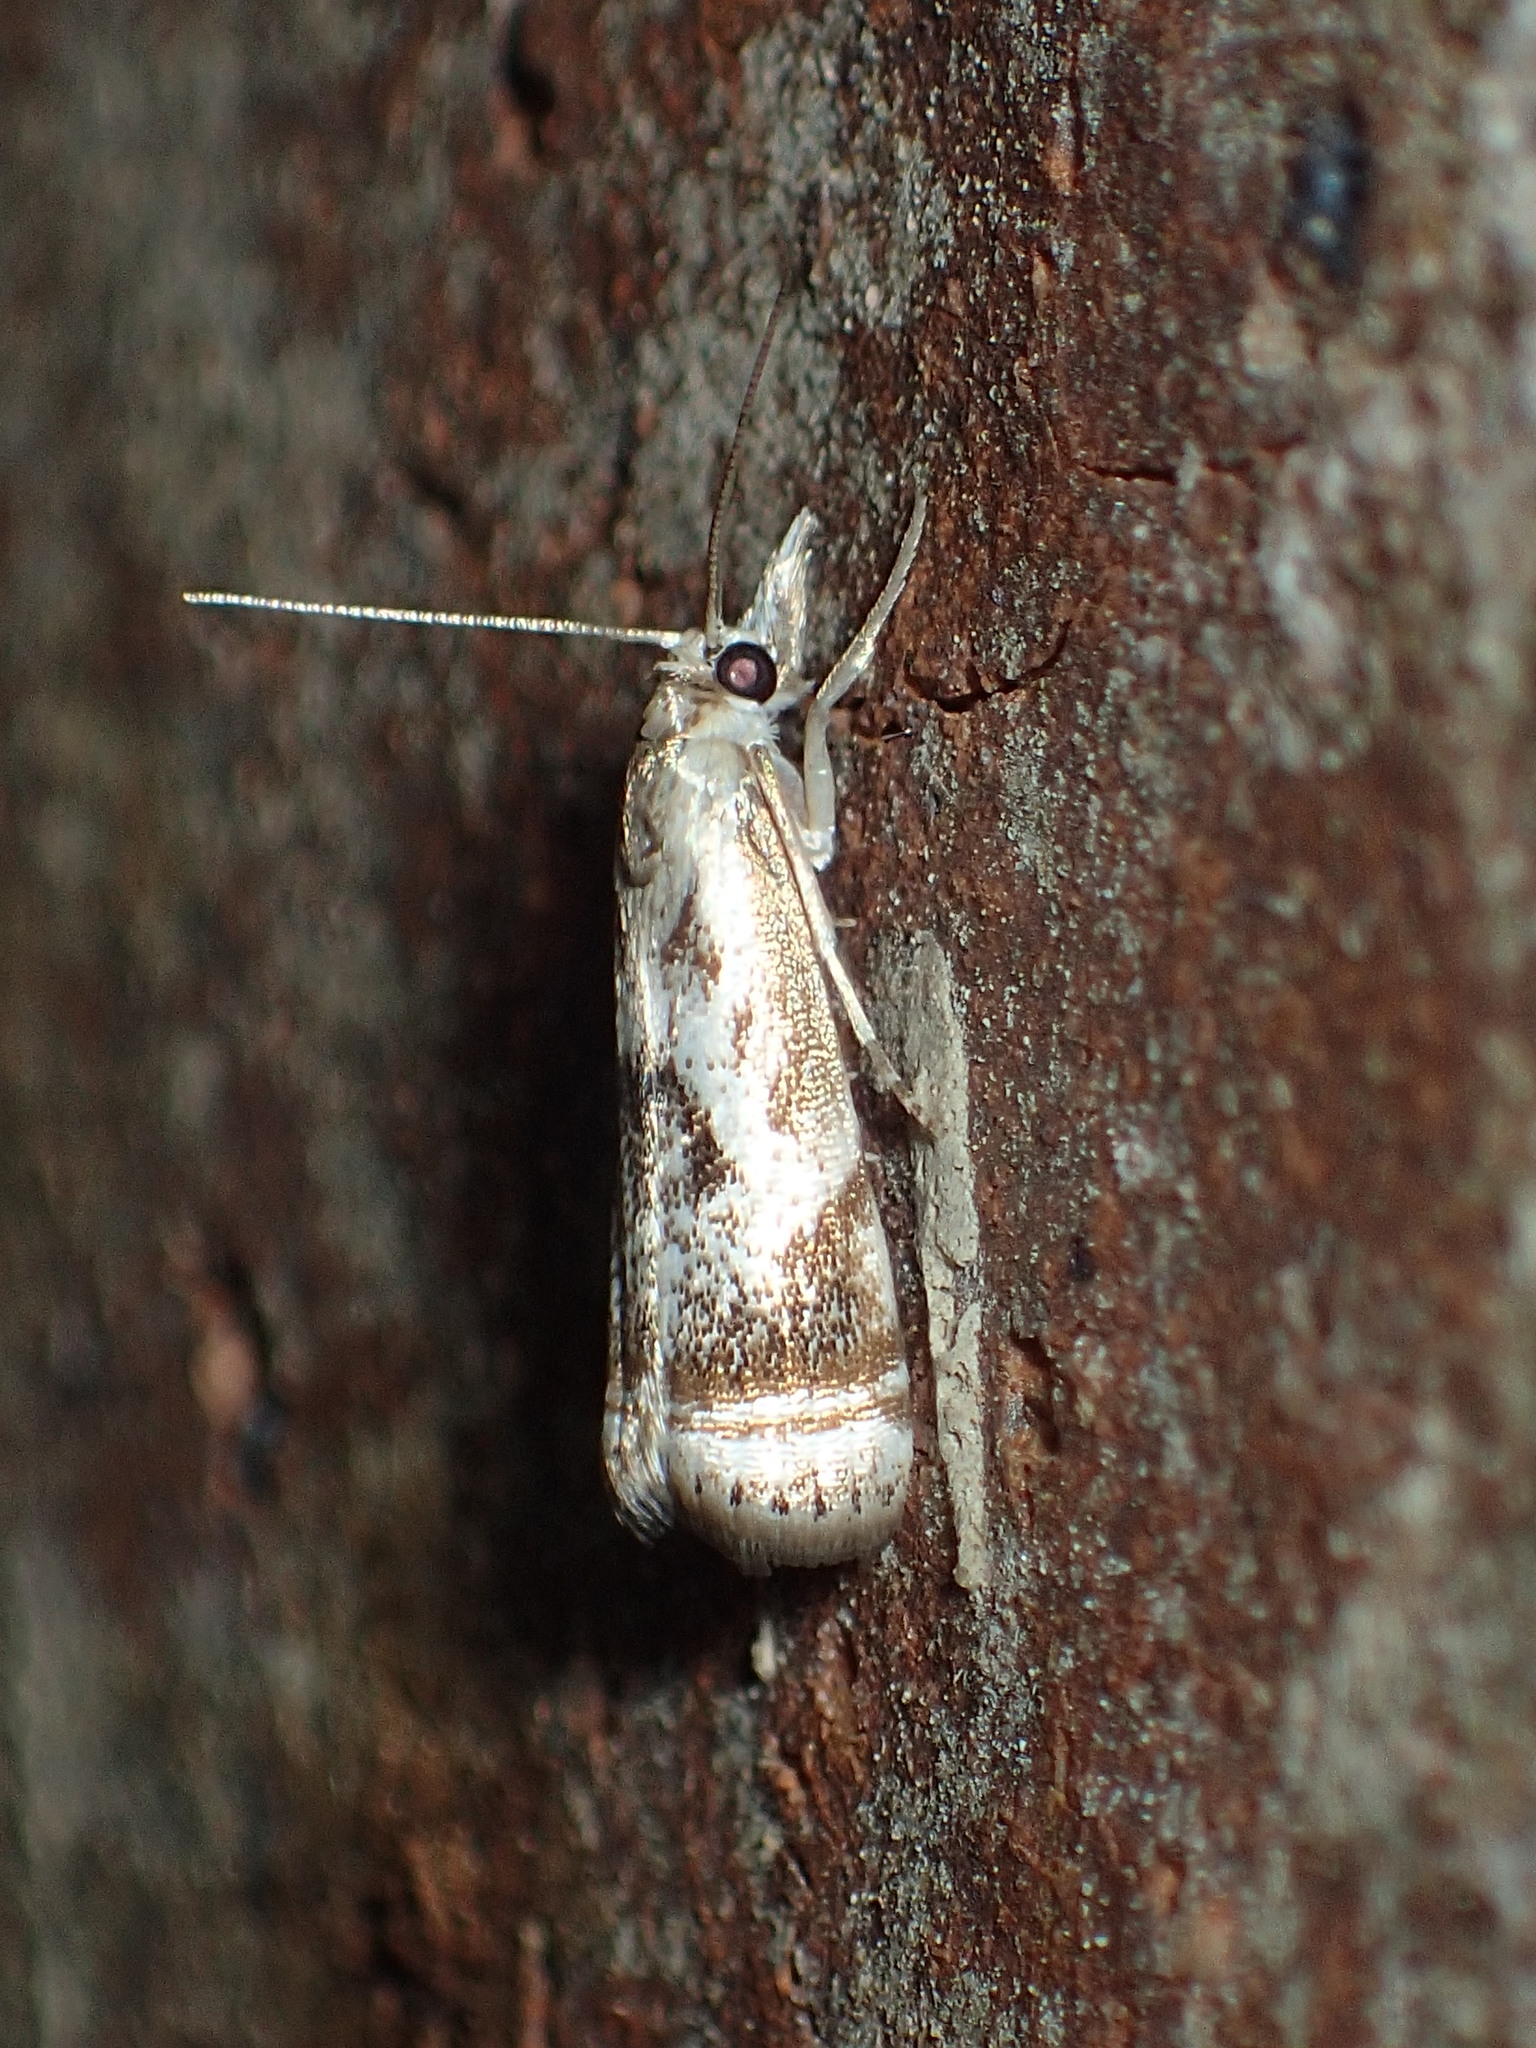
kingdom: Animalia
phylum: Arthropoda
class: Insecta
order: Lepidoptera
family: Crambidae
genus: Microcrambus
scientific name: Microcrambus elegans
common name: Elegant grass-veneer
